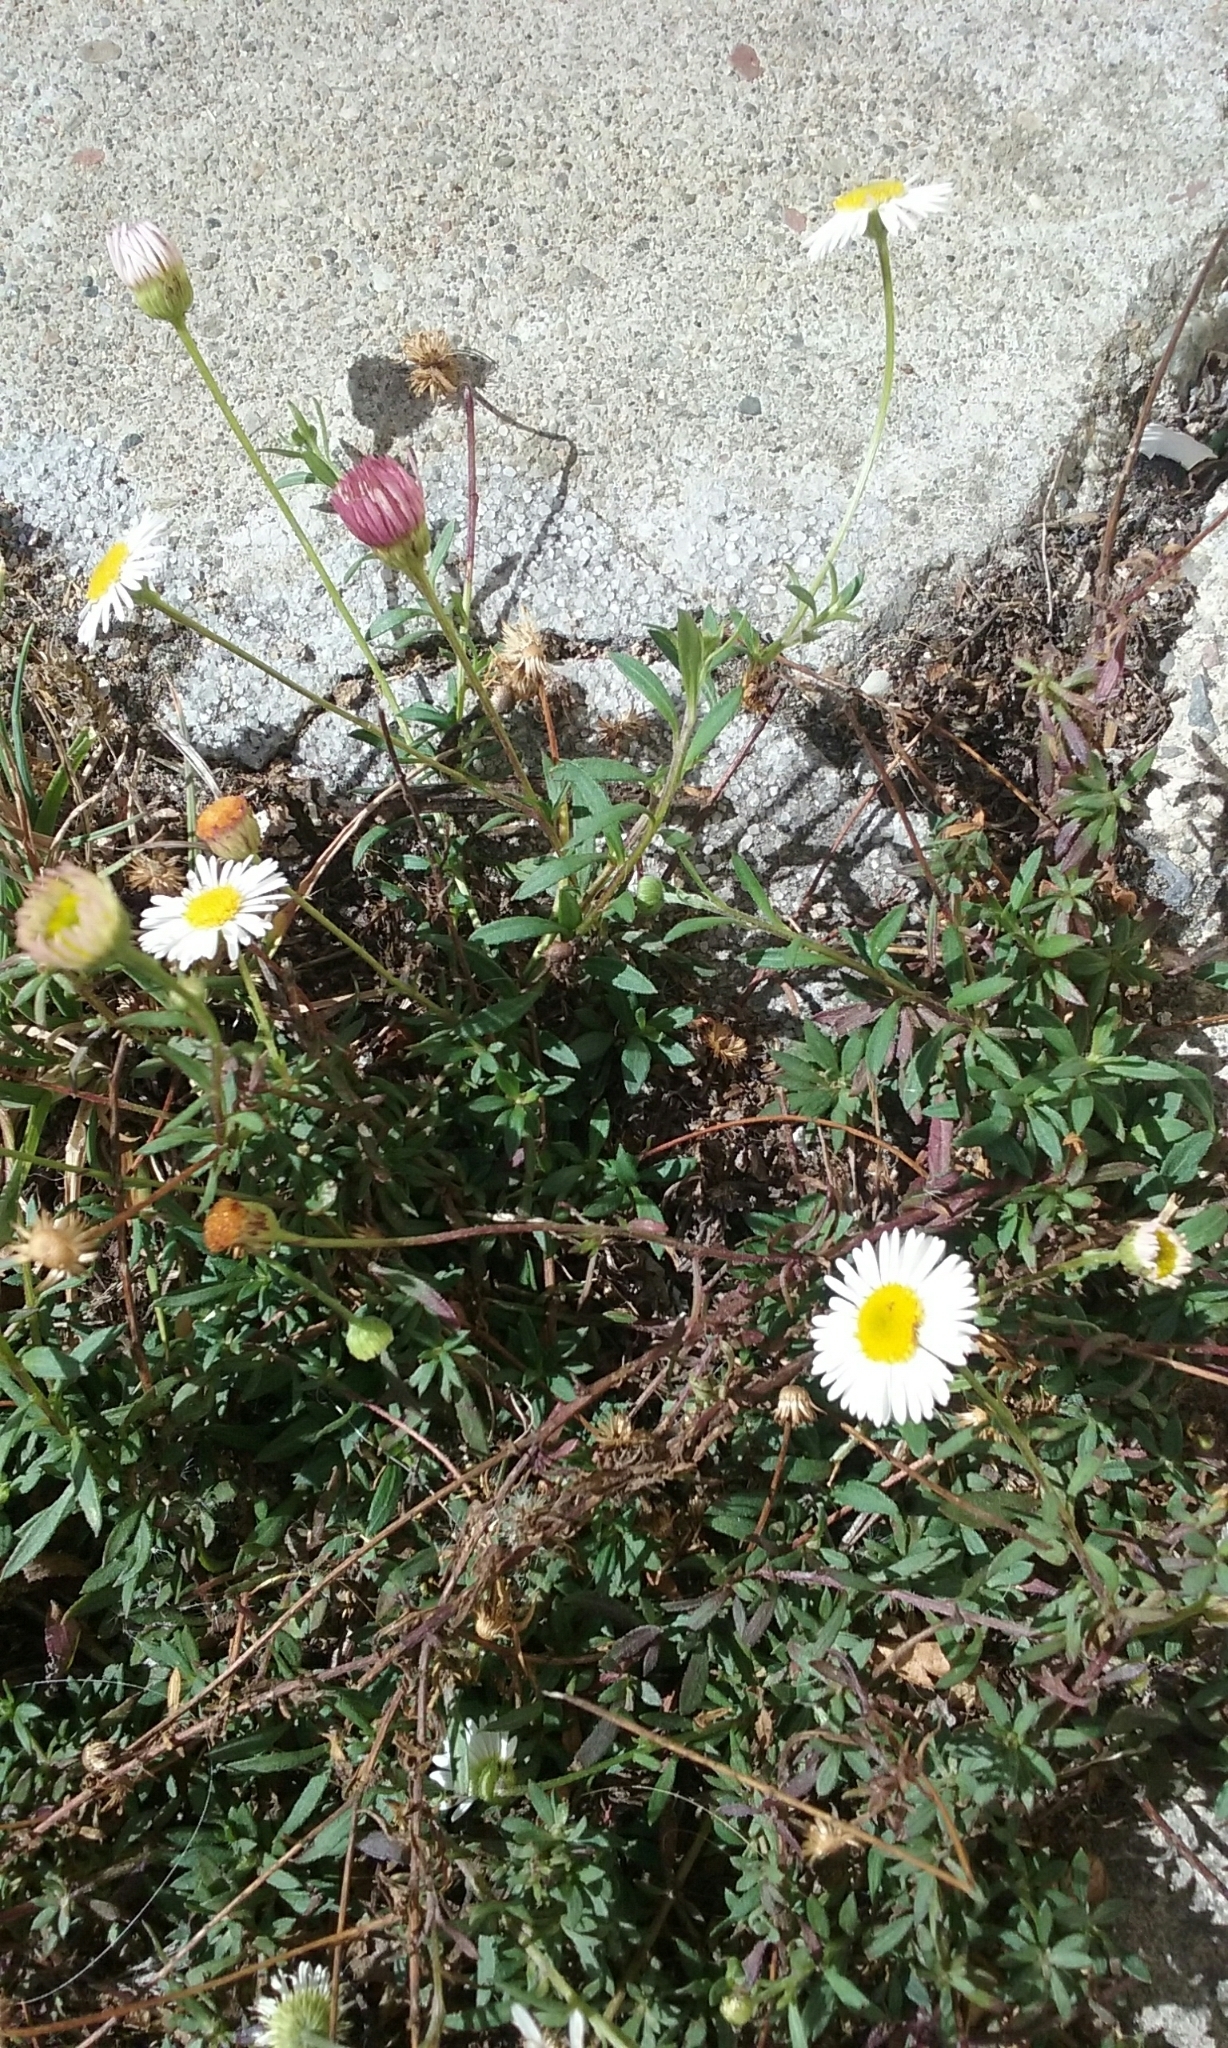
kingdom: Plantae
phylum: Tracheophyta
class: Magnoliopsida
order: Asterales
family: Asteraceae
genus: Erigeron
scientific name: Erigeron karvinskianus
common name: Mexican fleabane
